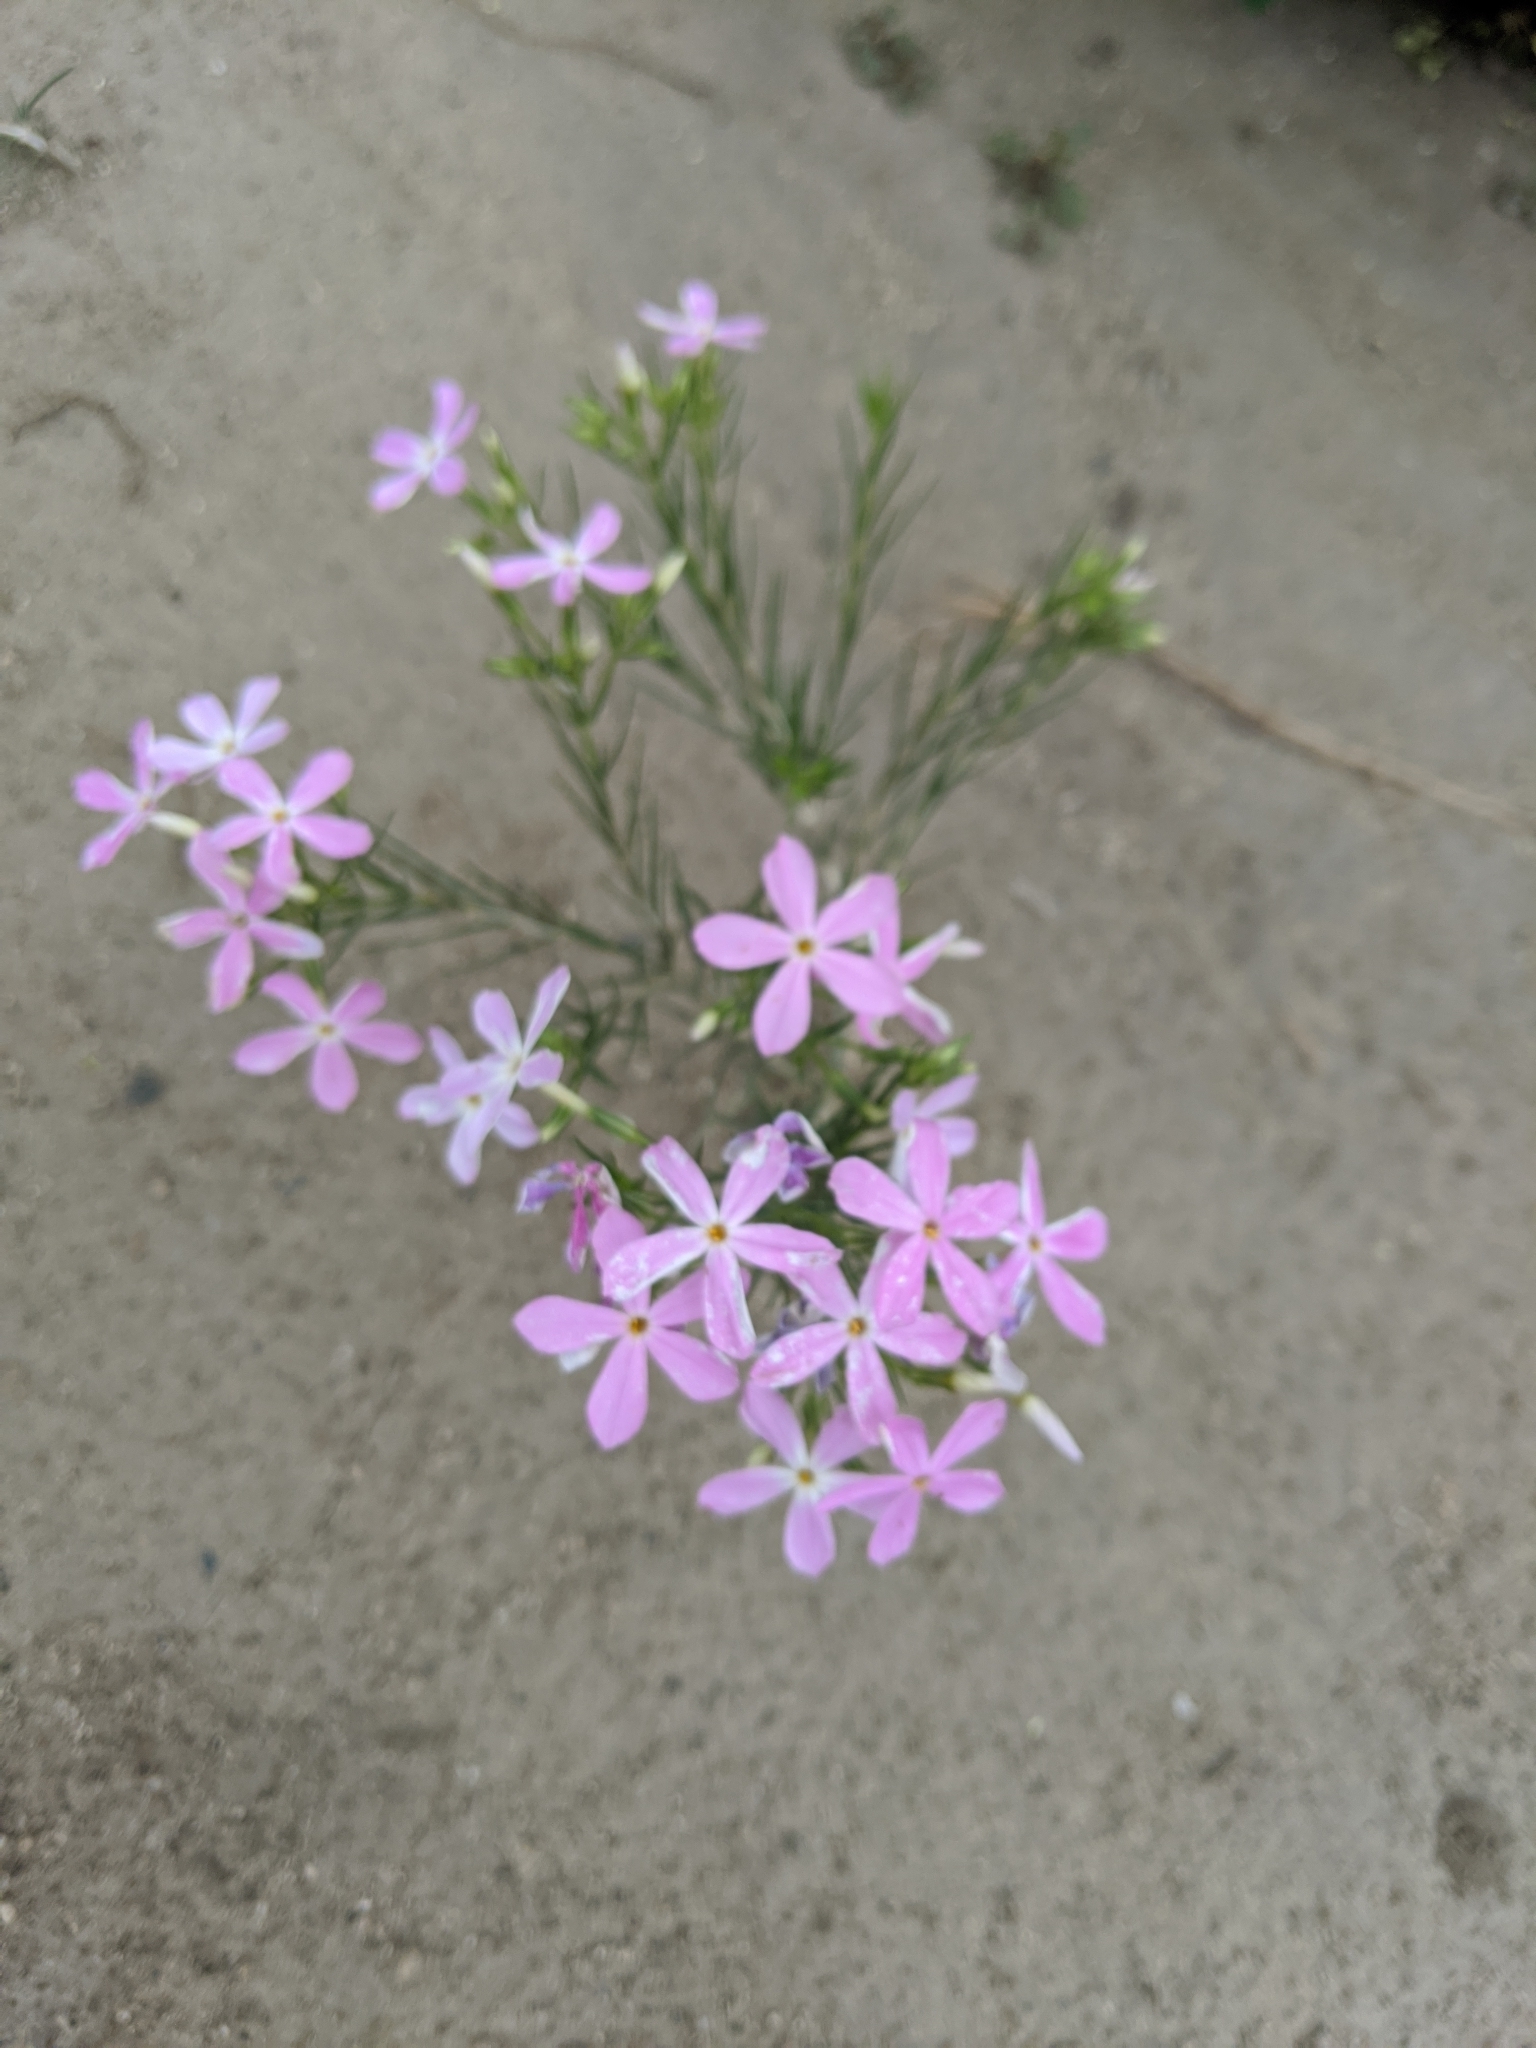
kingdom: Plantae
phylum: Tracheophyta
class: Magnoliopsida
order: Ericales
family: Polemoniaceae
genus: Phlox
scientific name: Phlox longifolia
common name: Longleaf phlox
